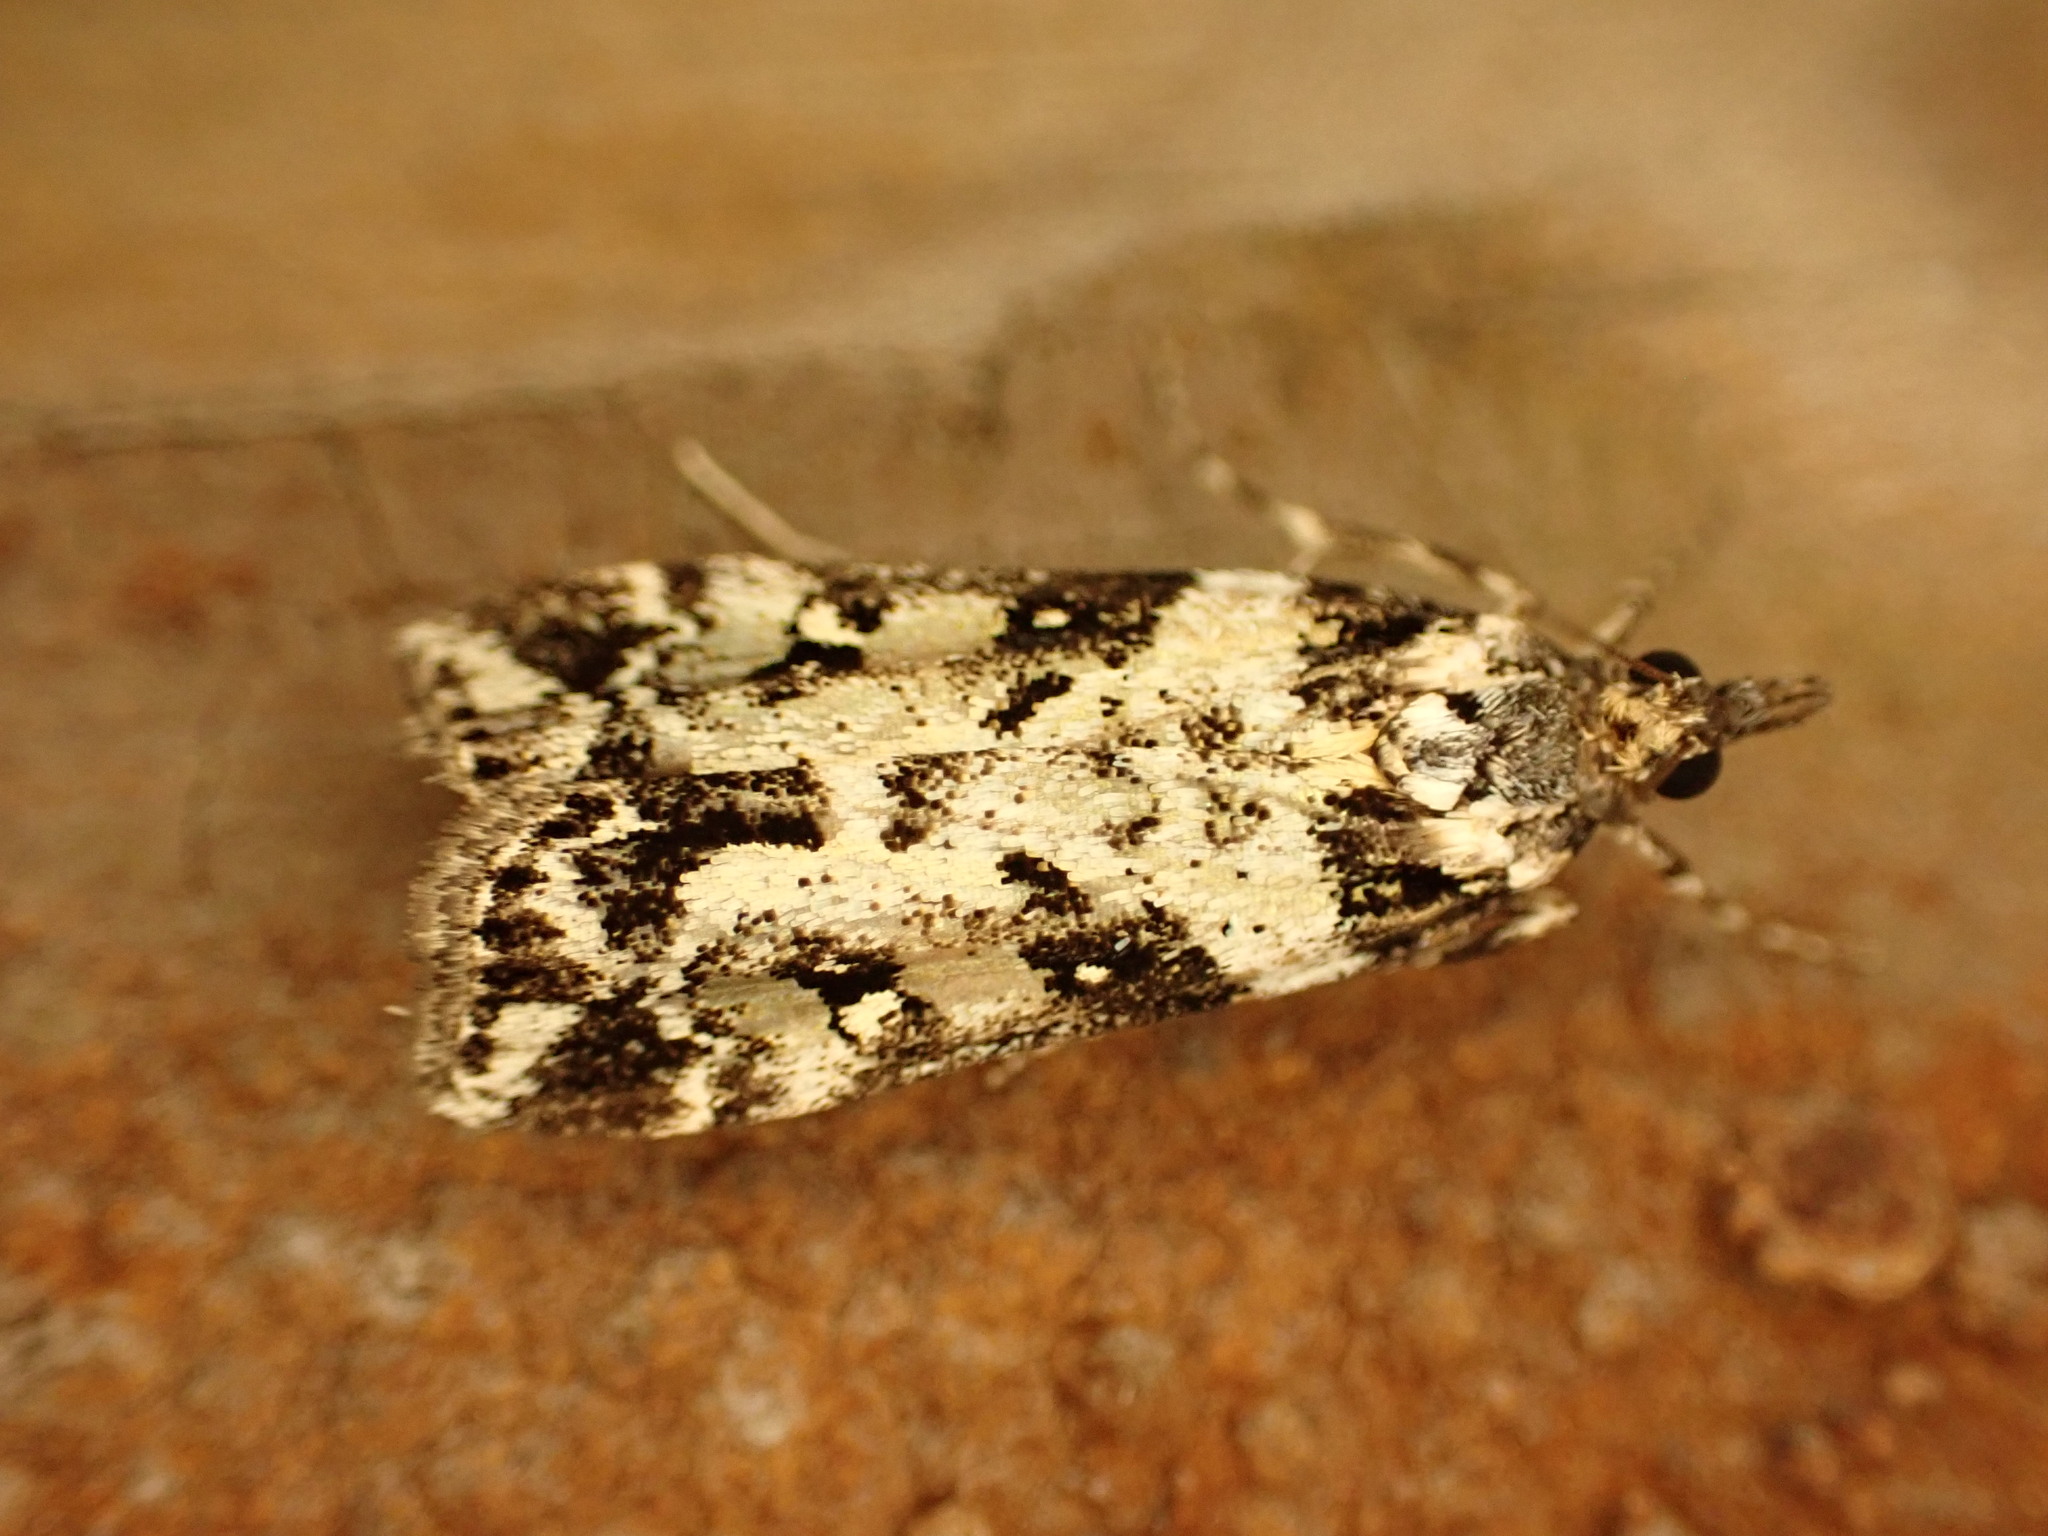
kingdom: Animalia
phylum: Arthropoda
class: Insecta
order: Lepidoptera
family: Crambidae
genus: Eudonia
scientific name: Eudonia diphtheralis
